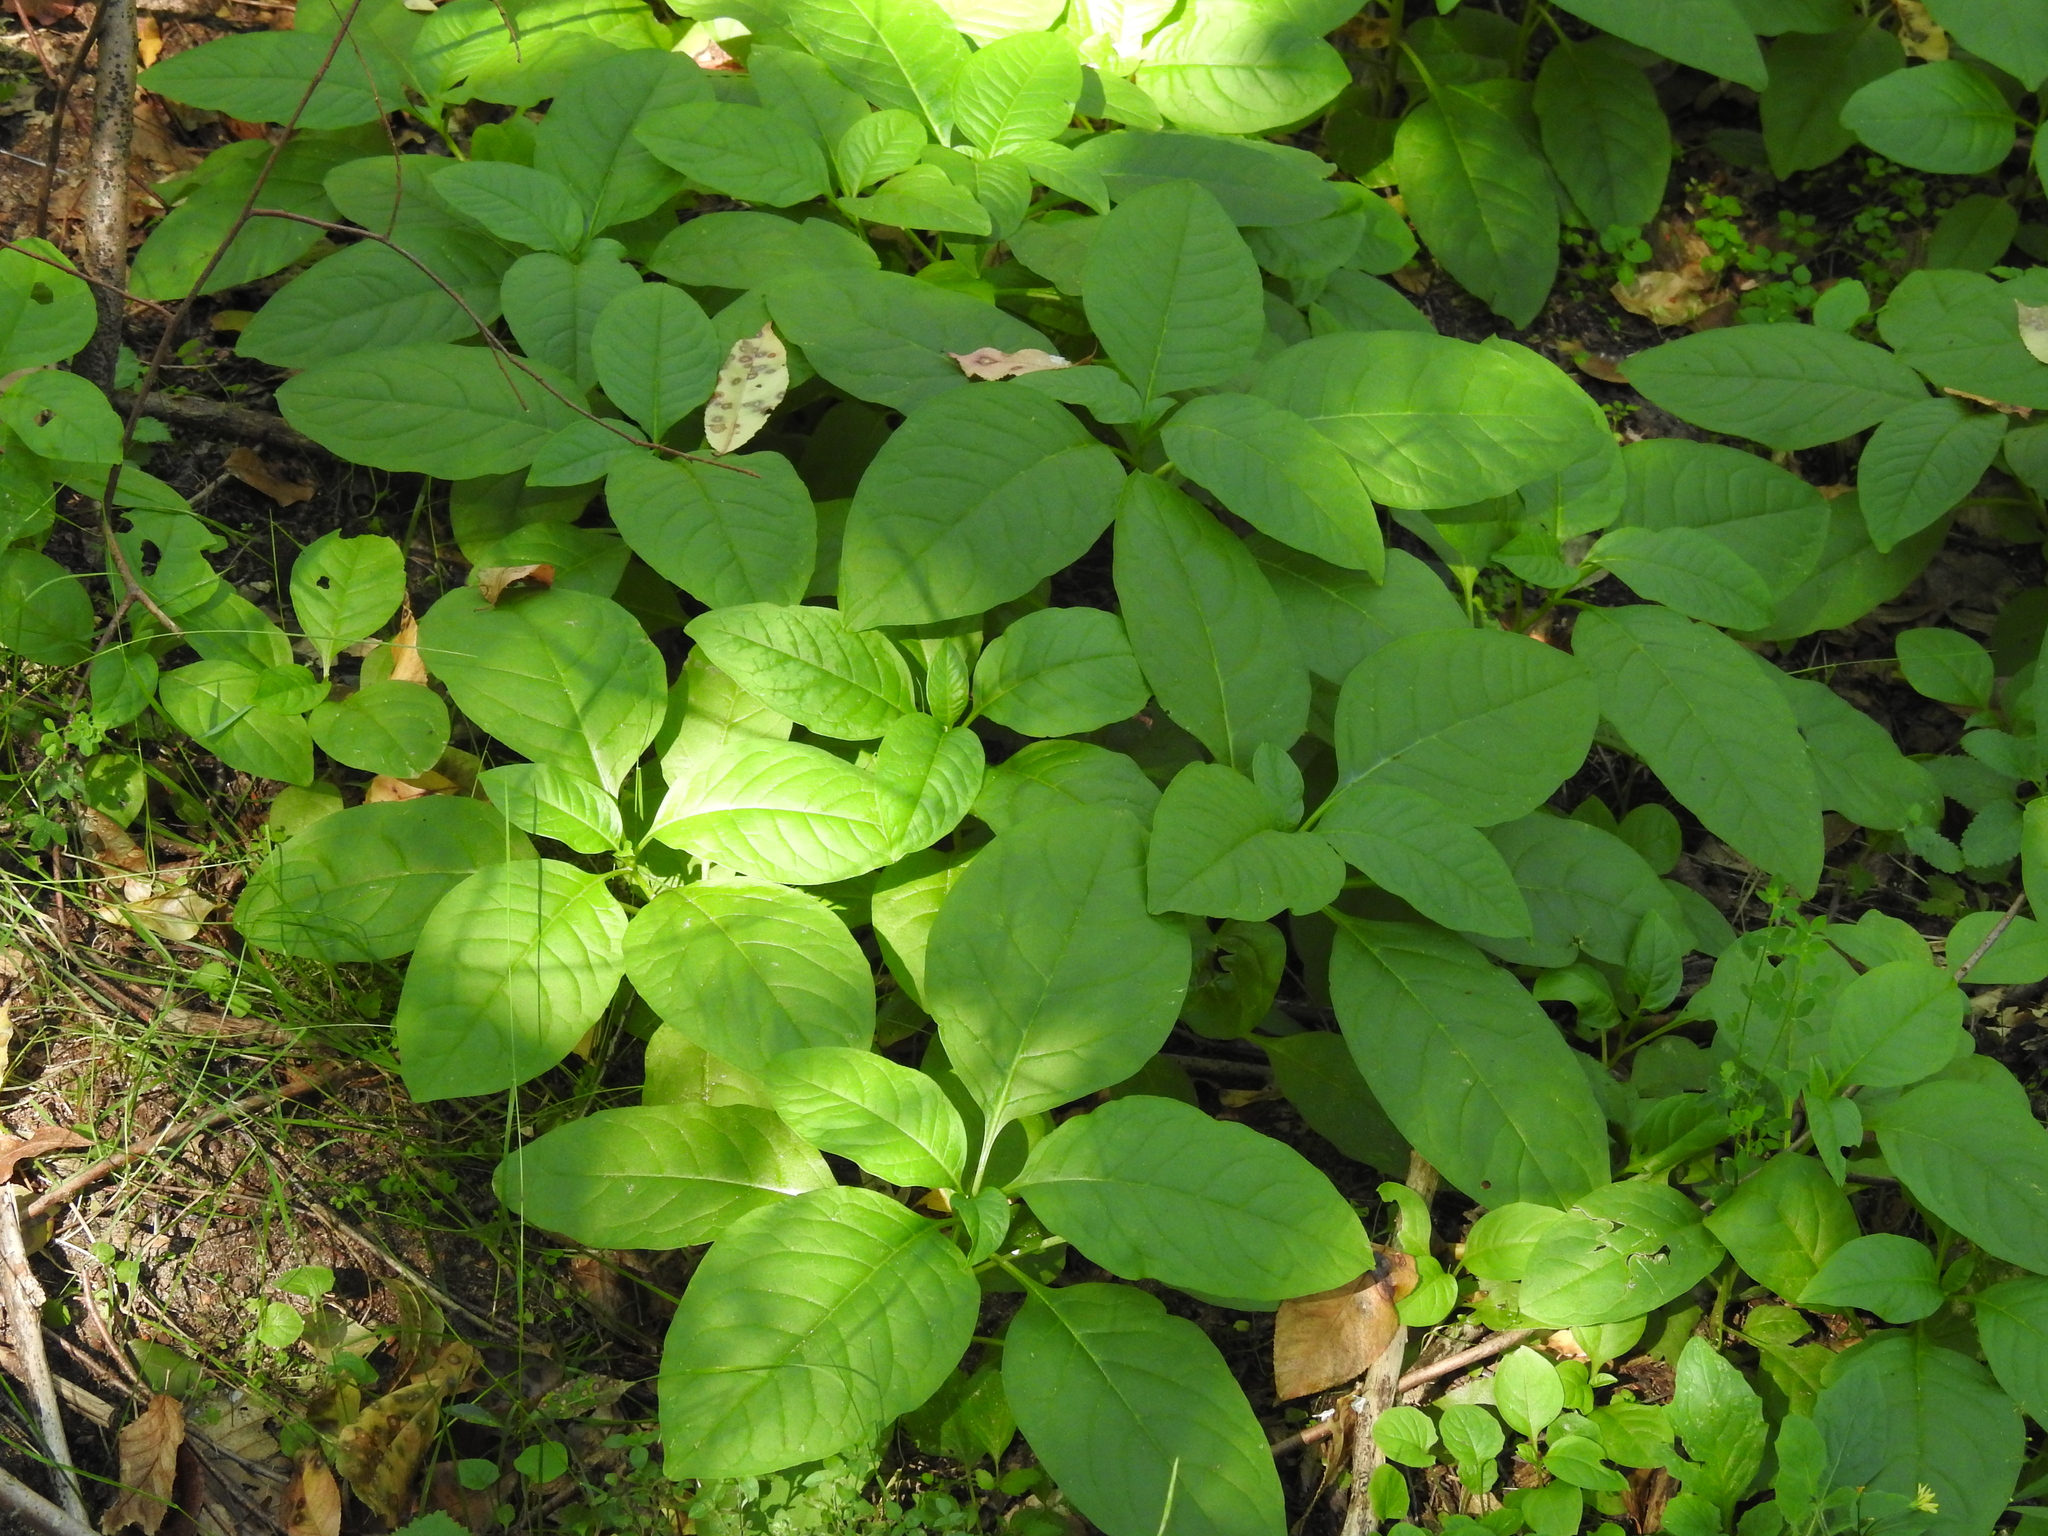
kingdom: Plantae
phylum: Tracheophyta
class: Magnoliopsida
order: Caryophyllales
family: Phytolaccaceae
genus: Phytolacca
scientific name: Phytolacca americana
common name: American pokeweed
